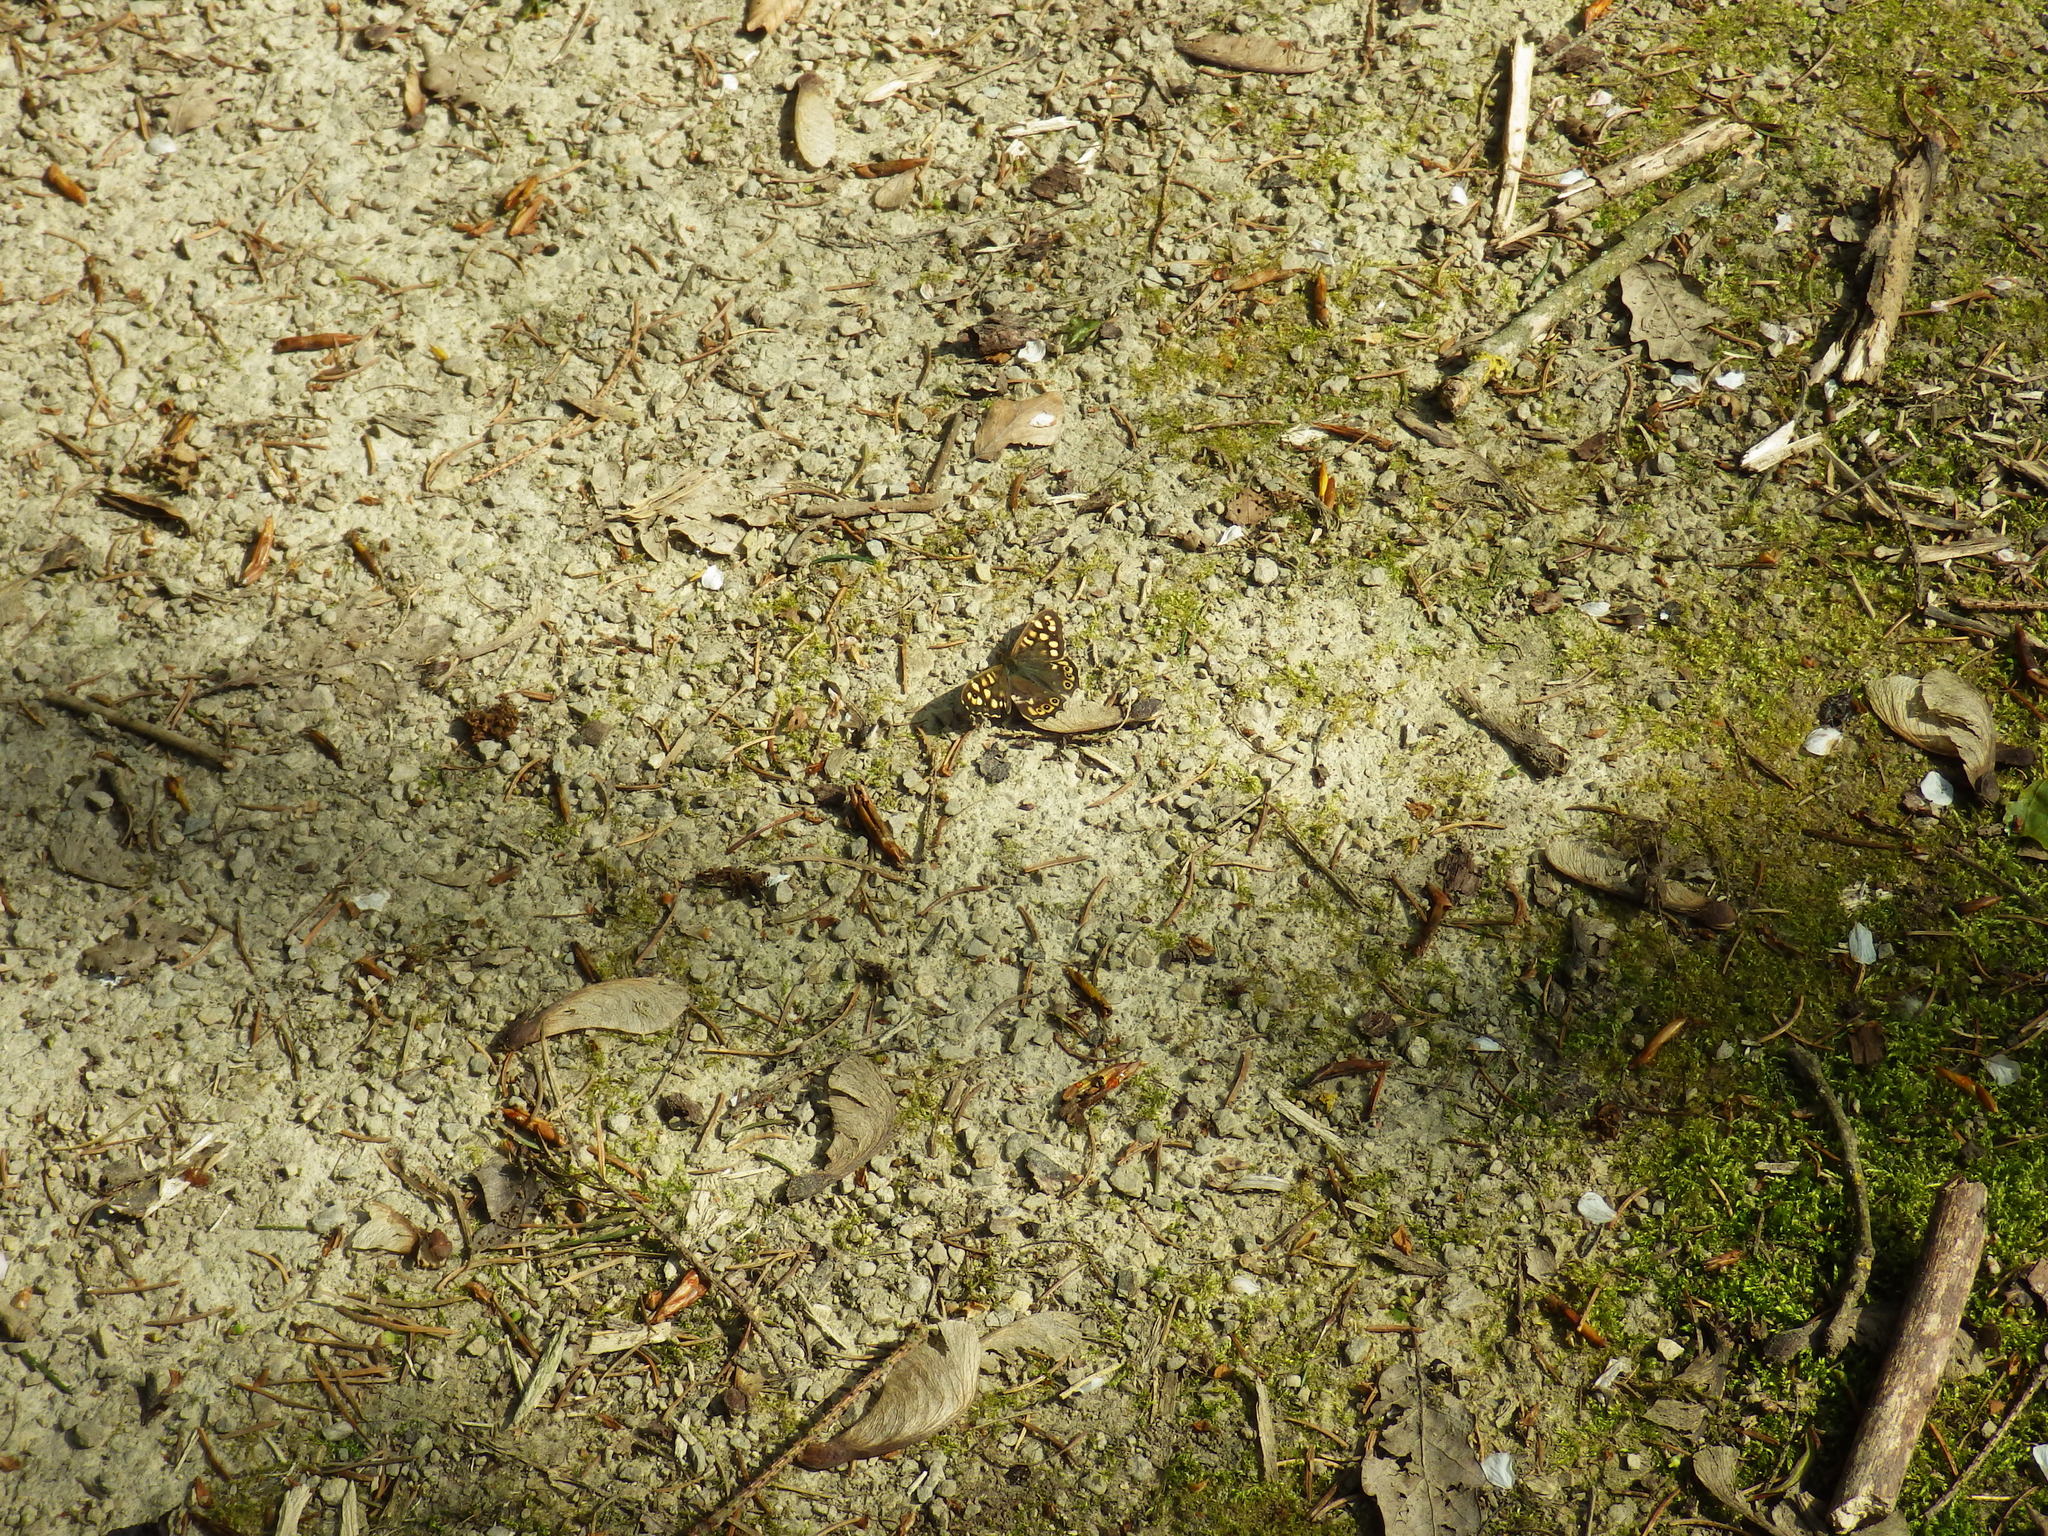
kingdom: Animalia
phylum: Arthropoda
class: Insecta
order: Lepidoptera
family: Nymphalidae
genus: Pararge
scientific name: Pararge aegeria
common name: Speckled wood
